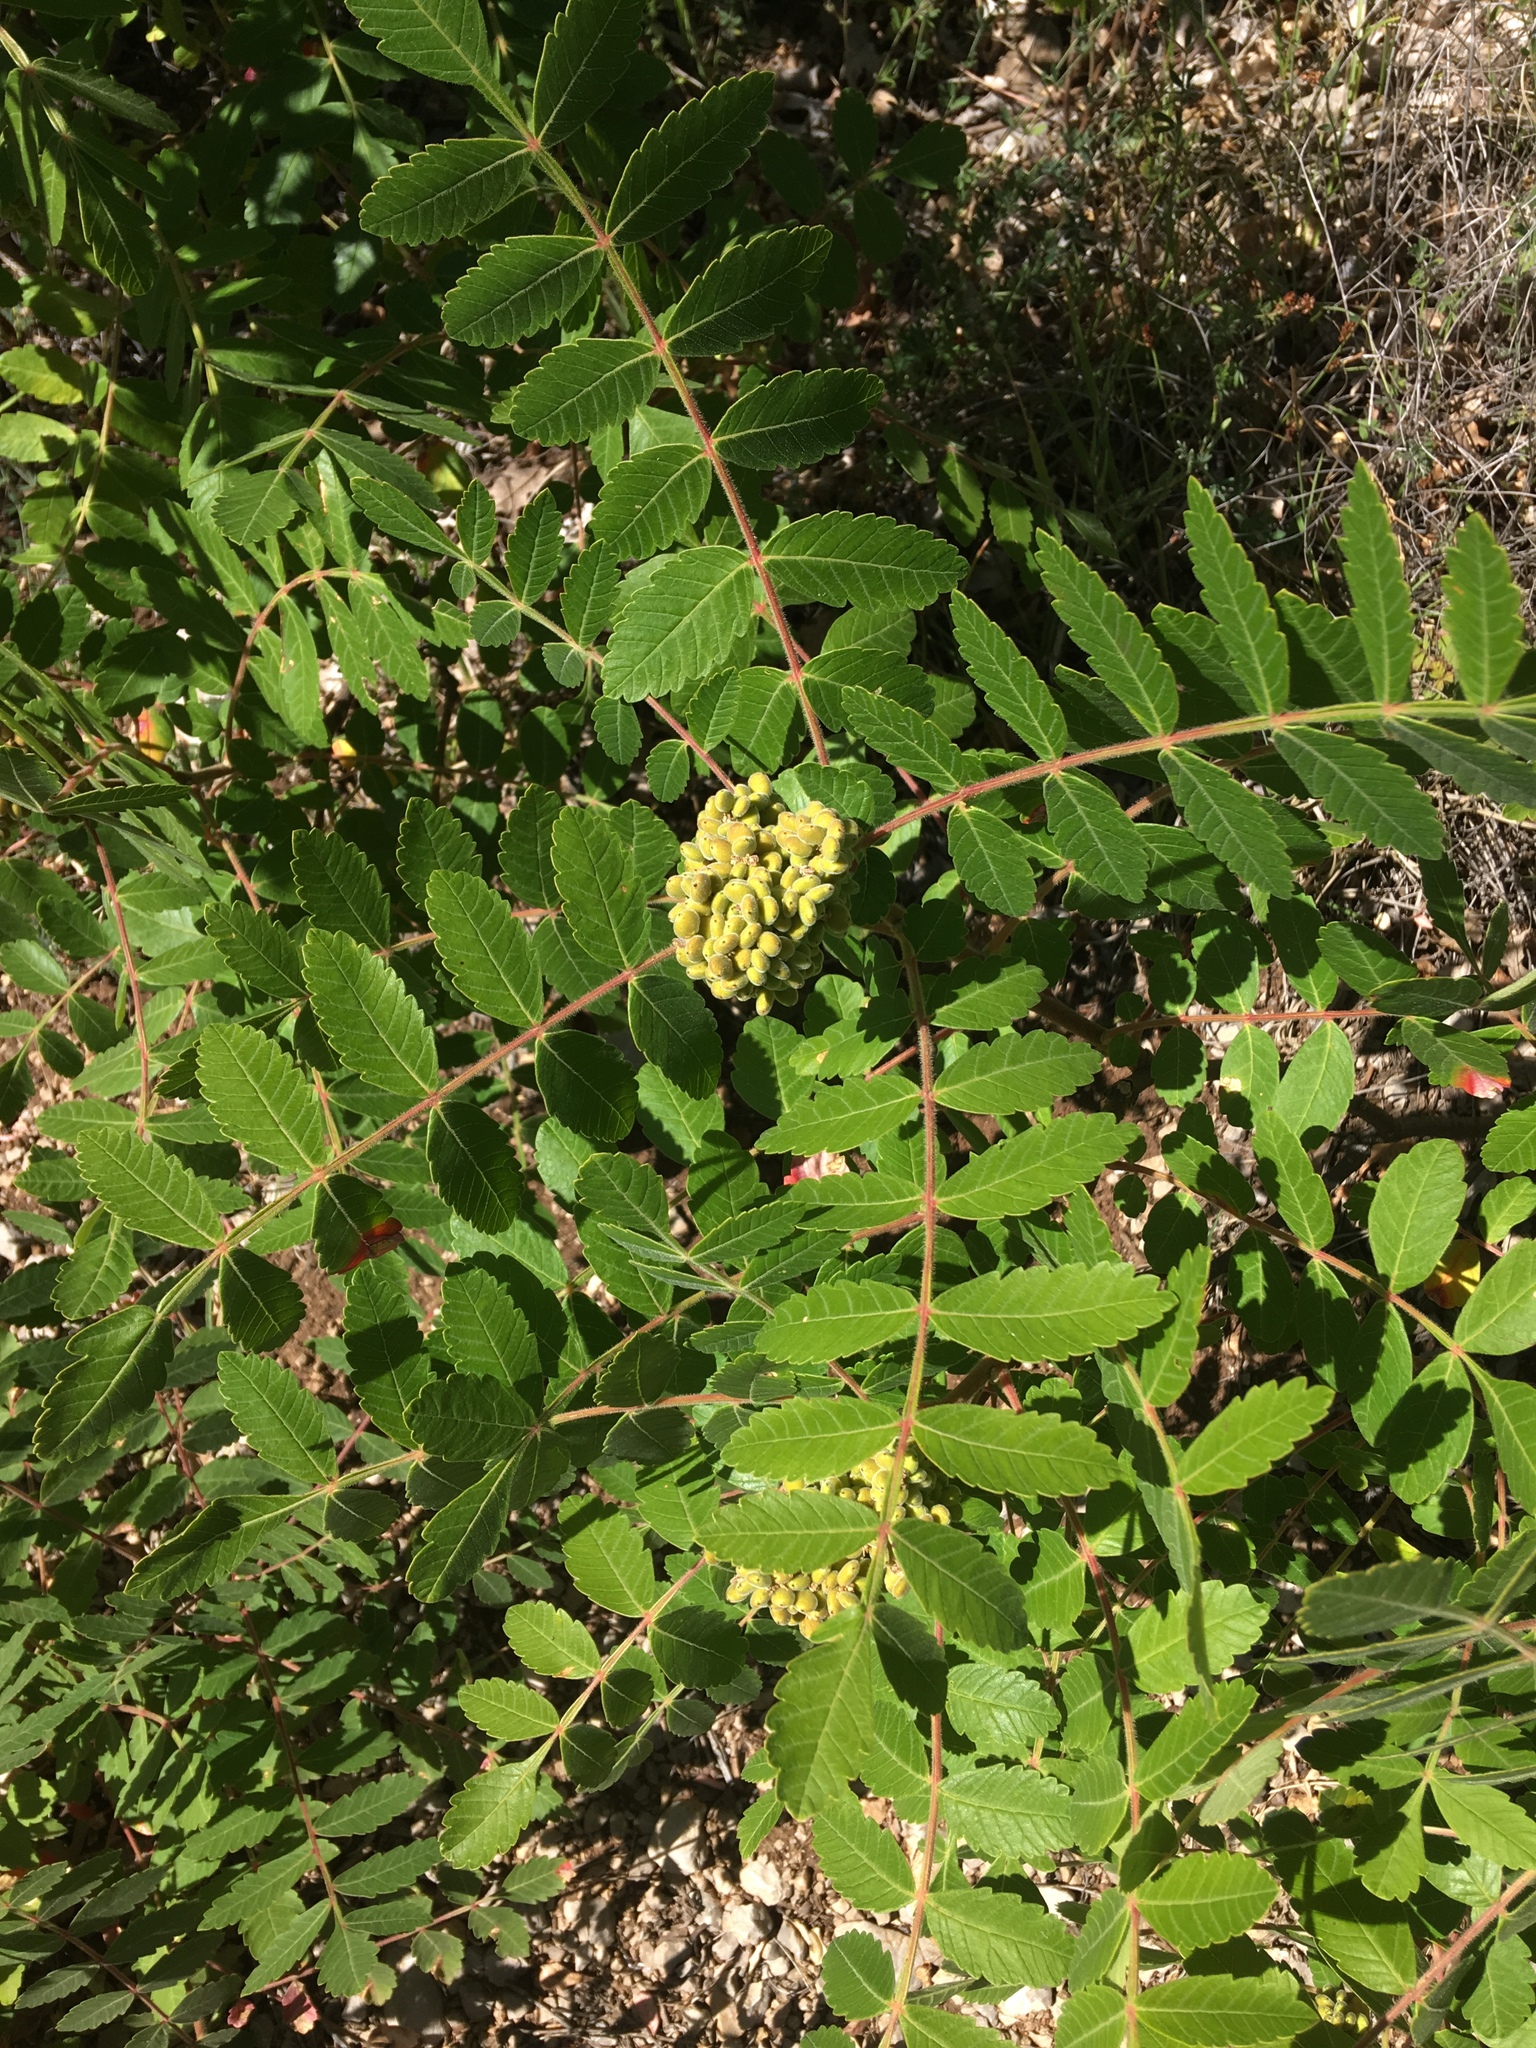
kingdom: Plantae
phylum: Tracheophyta
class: Magnoliopsida
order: Sapindales
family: Anacardiaceae
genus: Rhus
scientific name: Rhus coriaria
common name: Tanner's sumach
